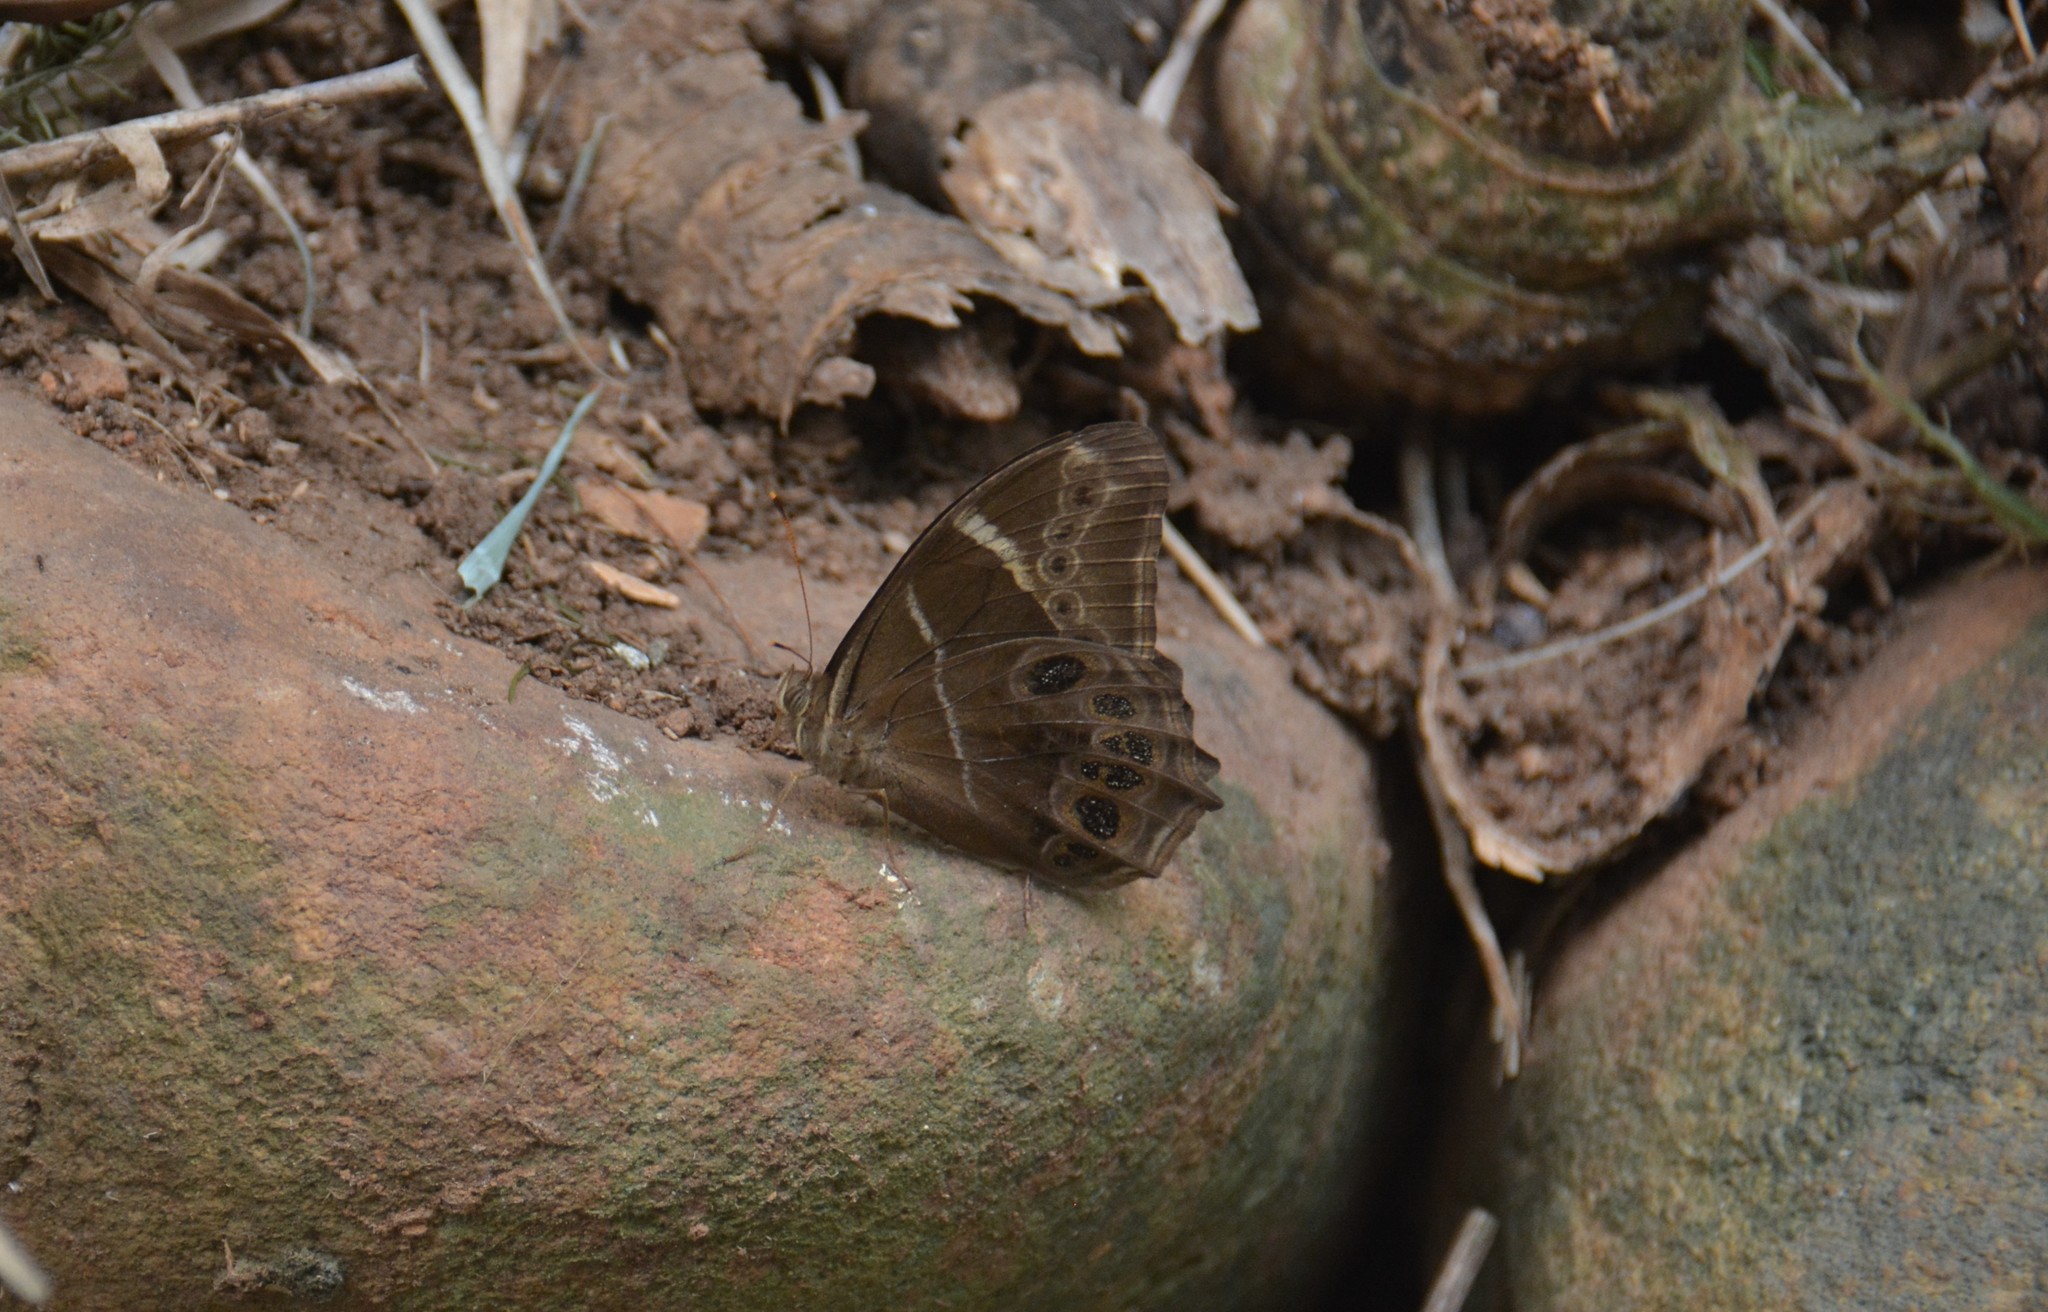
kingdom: Animalia
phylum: Arthropoda
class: Insecta
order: Lepidoptera
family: Nymphalidae
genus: Lethe
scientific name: Lethe europa
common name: Bamboo treebrown
